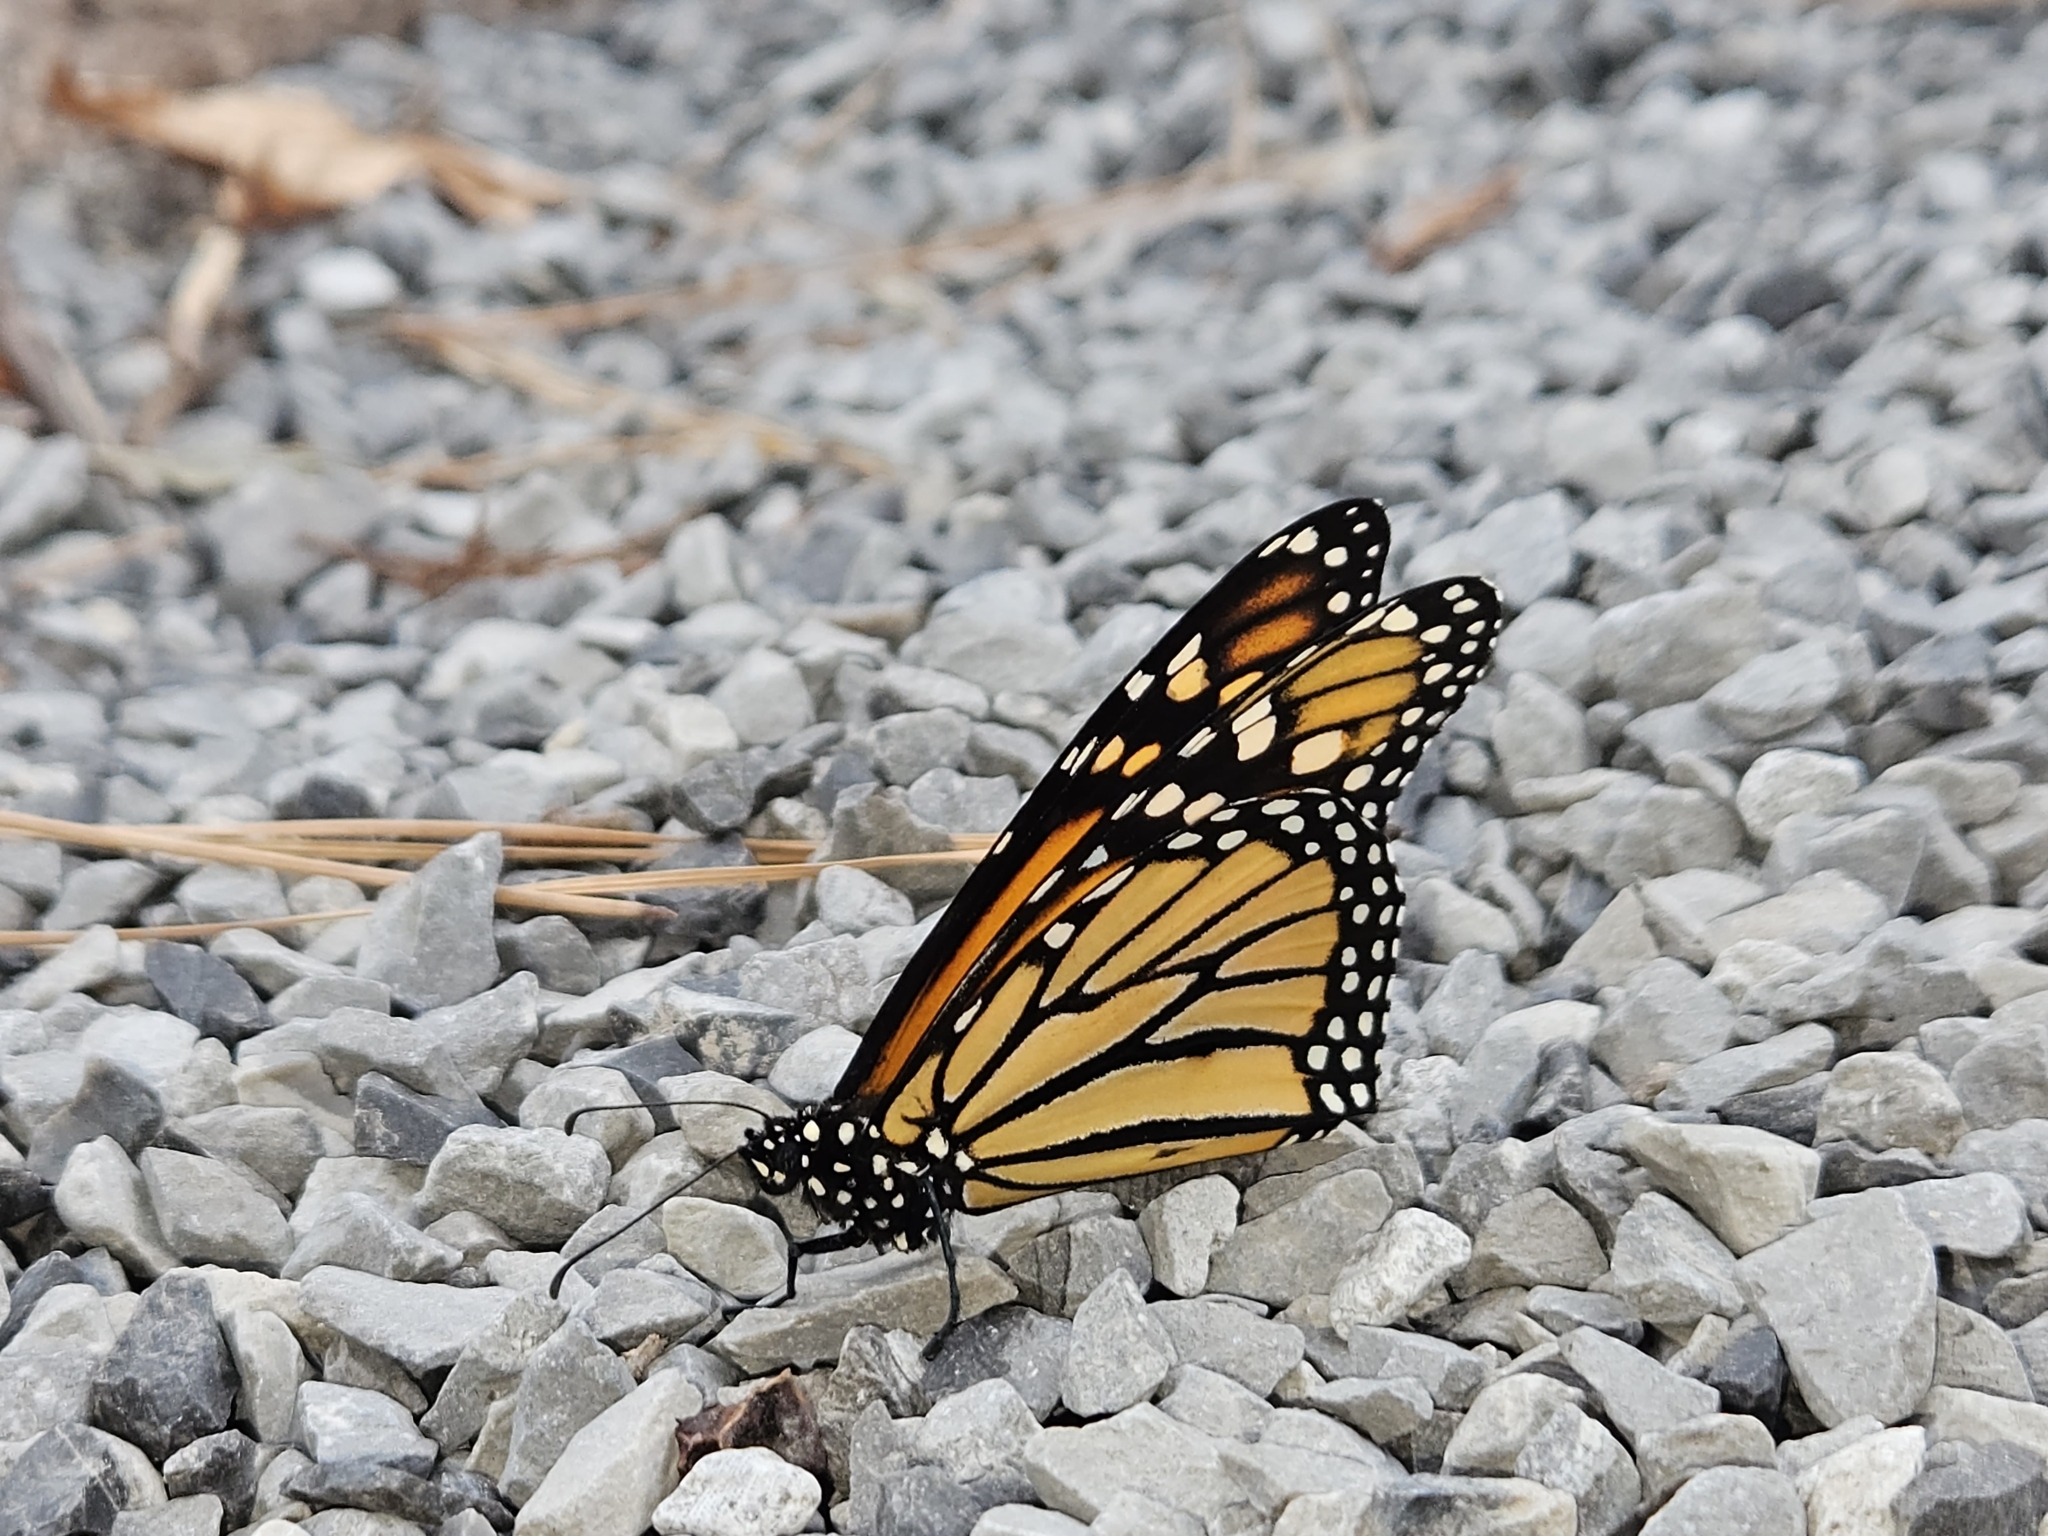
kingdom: Animalia
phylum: Arthropoda
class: Insecta
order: Lepidoptera
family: Nymphalidae
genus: Danaus
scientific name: Danaus plexippus
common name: Monarch
